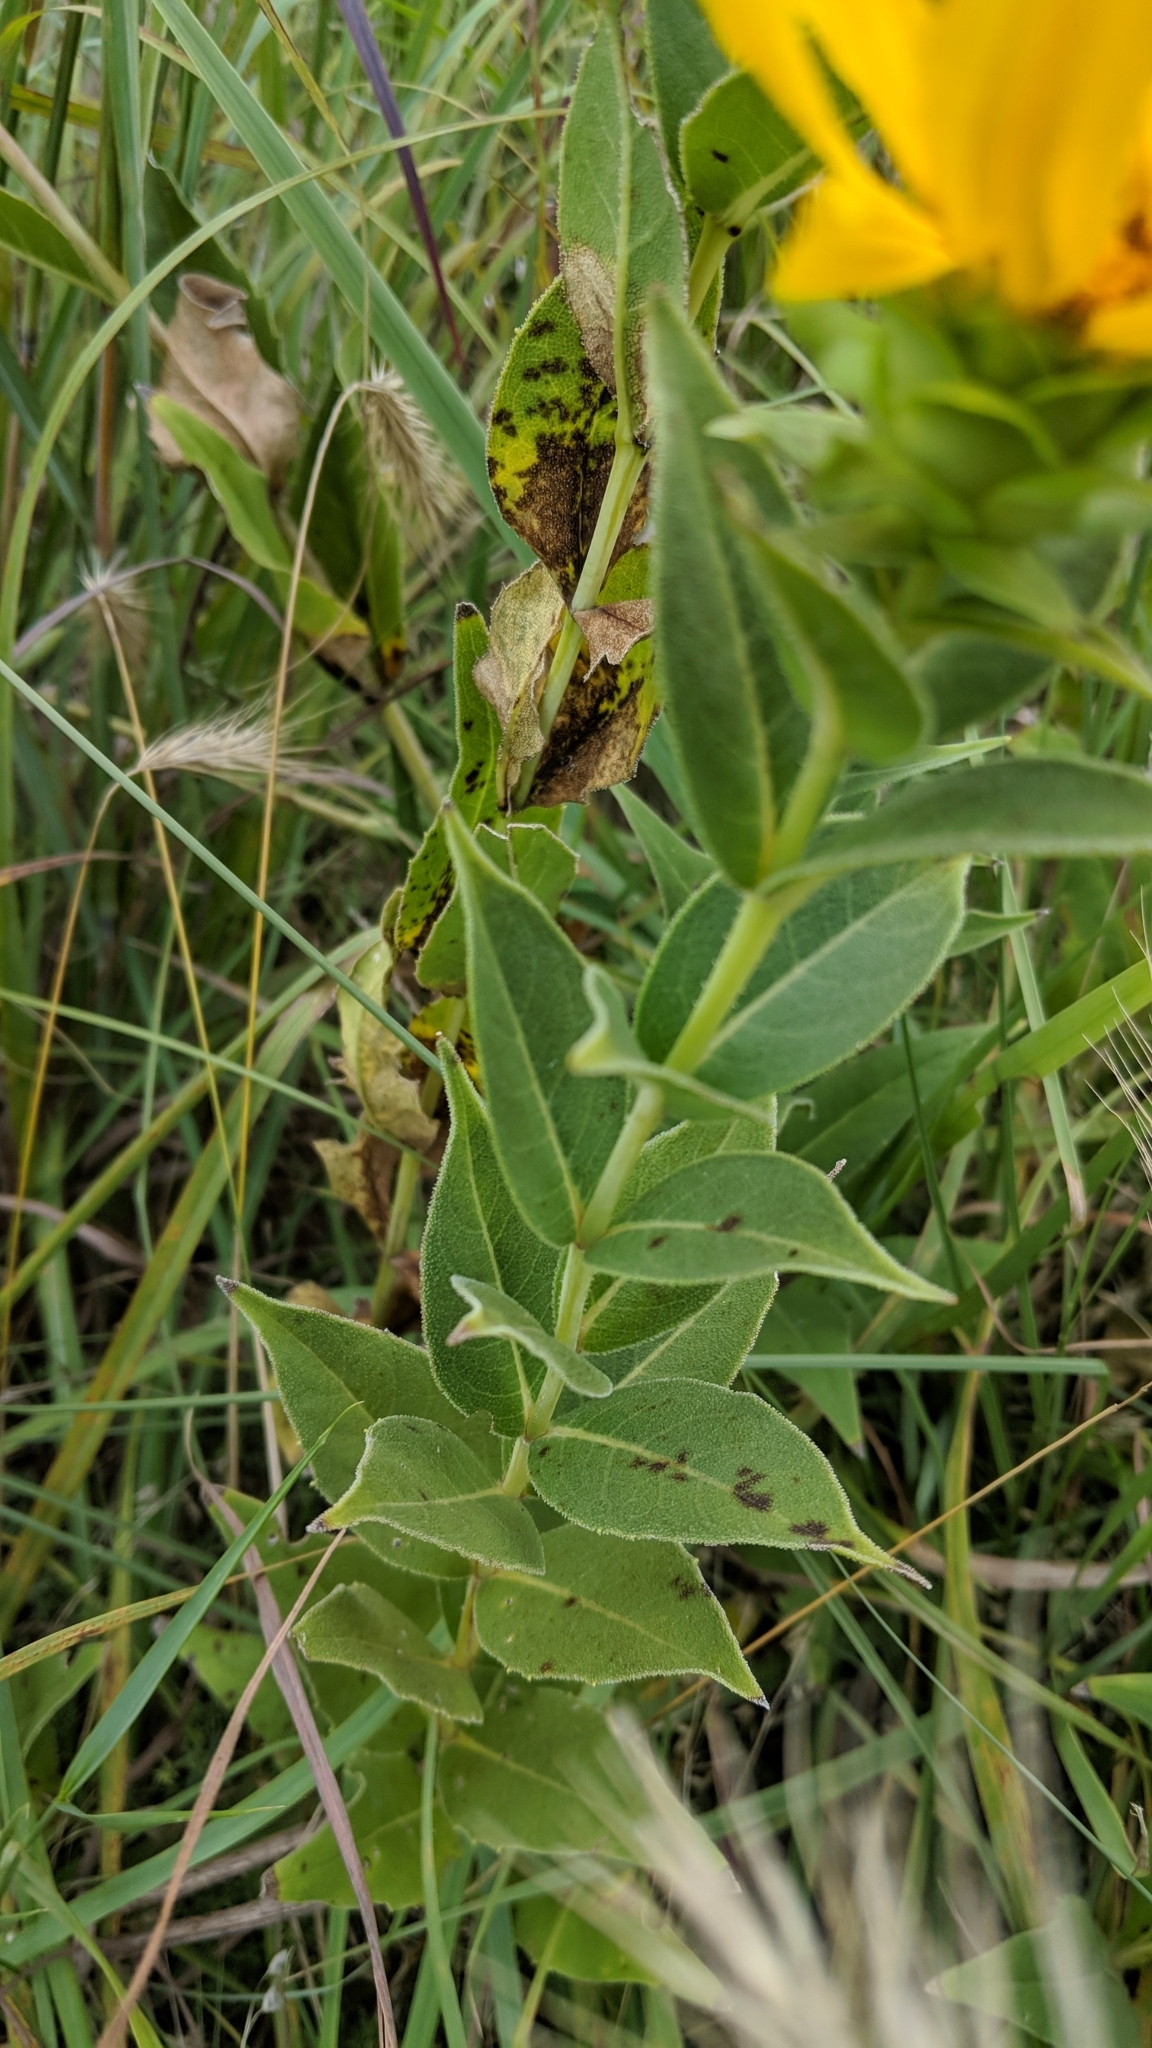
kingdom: Plantae
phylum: Tracheophyta
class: Magnoliopsida
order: Asterales
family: Asteraceae
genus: Silphium
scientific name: Silphium integrifolium
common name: Whole-leaf rosinweed
